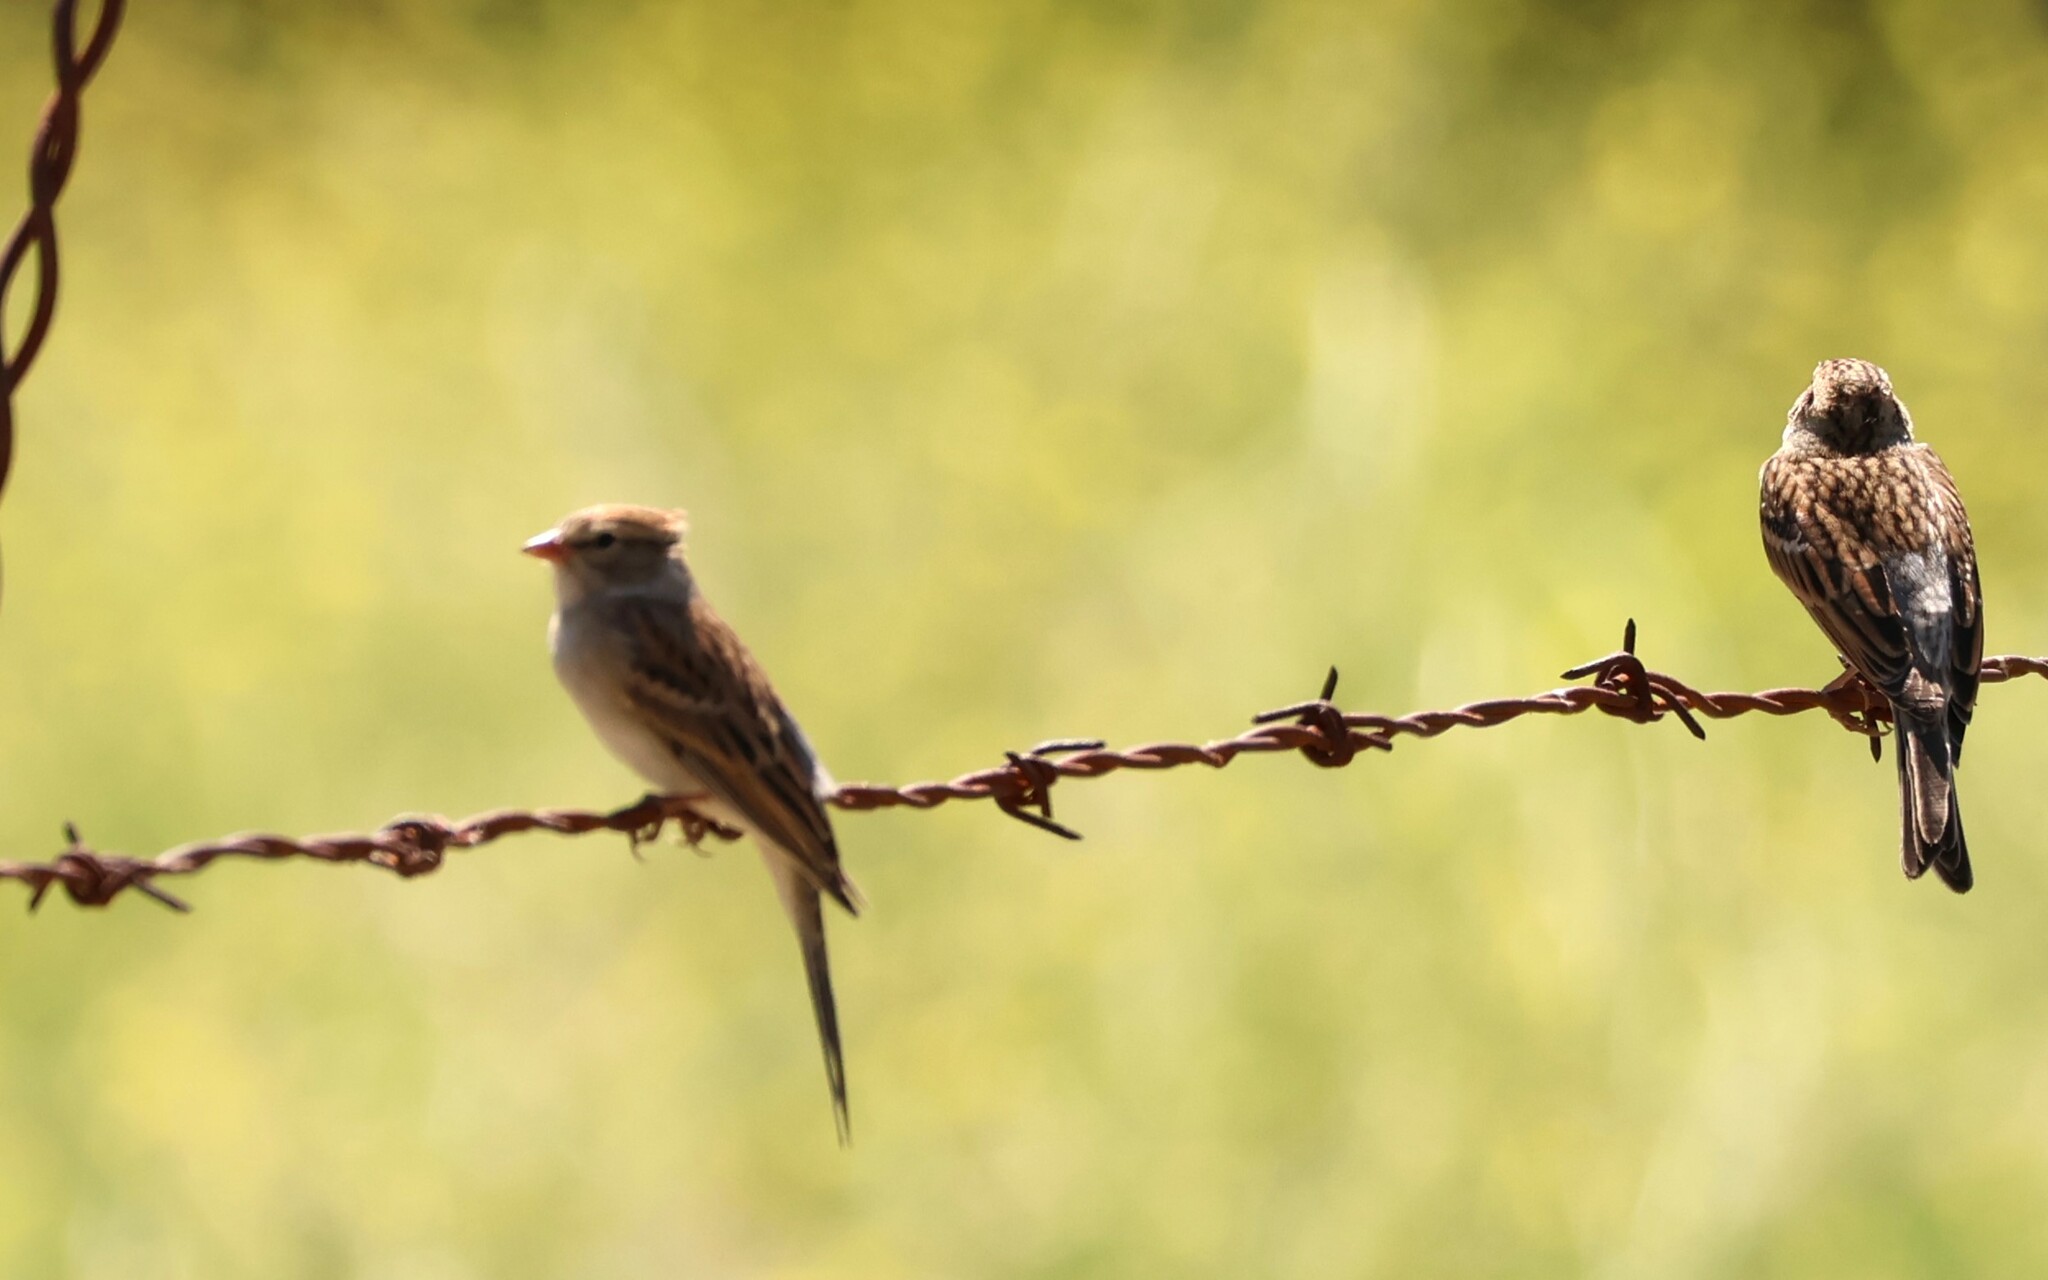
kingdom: Animalia
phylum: Chordata
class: Aves
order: Passeriformes
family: Passerellidae
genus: Spizella
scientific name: Spizella passerina
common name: Chipping sparrow
